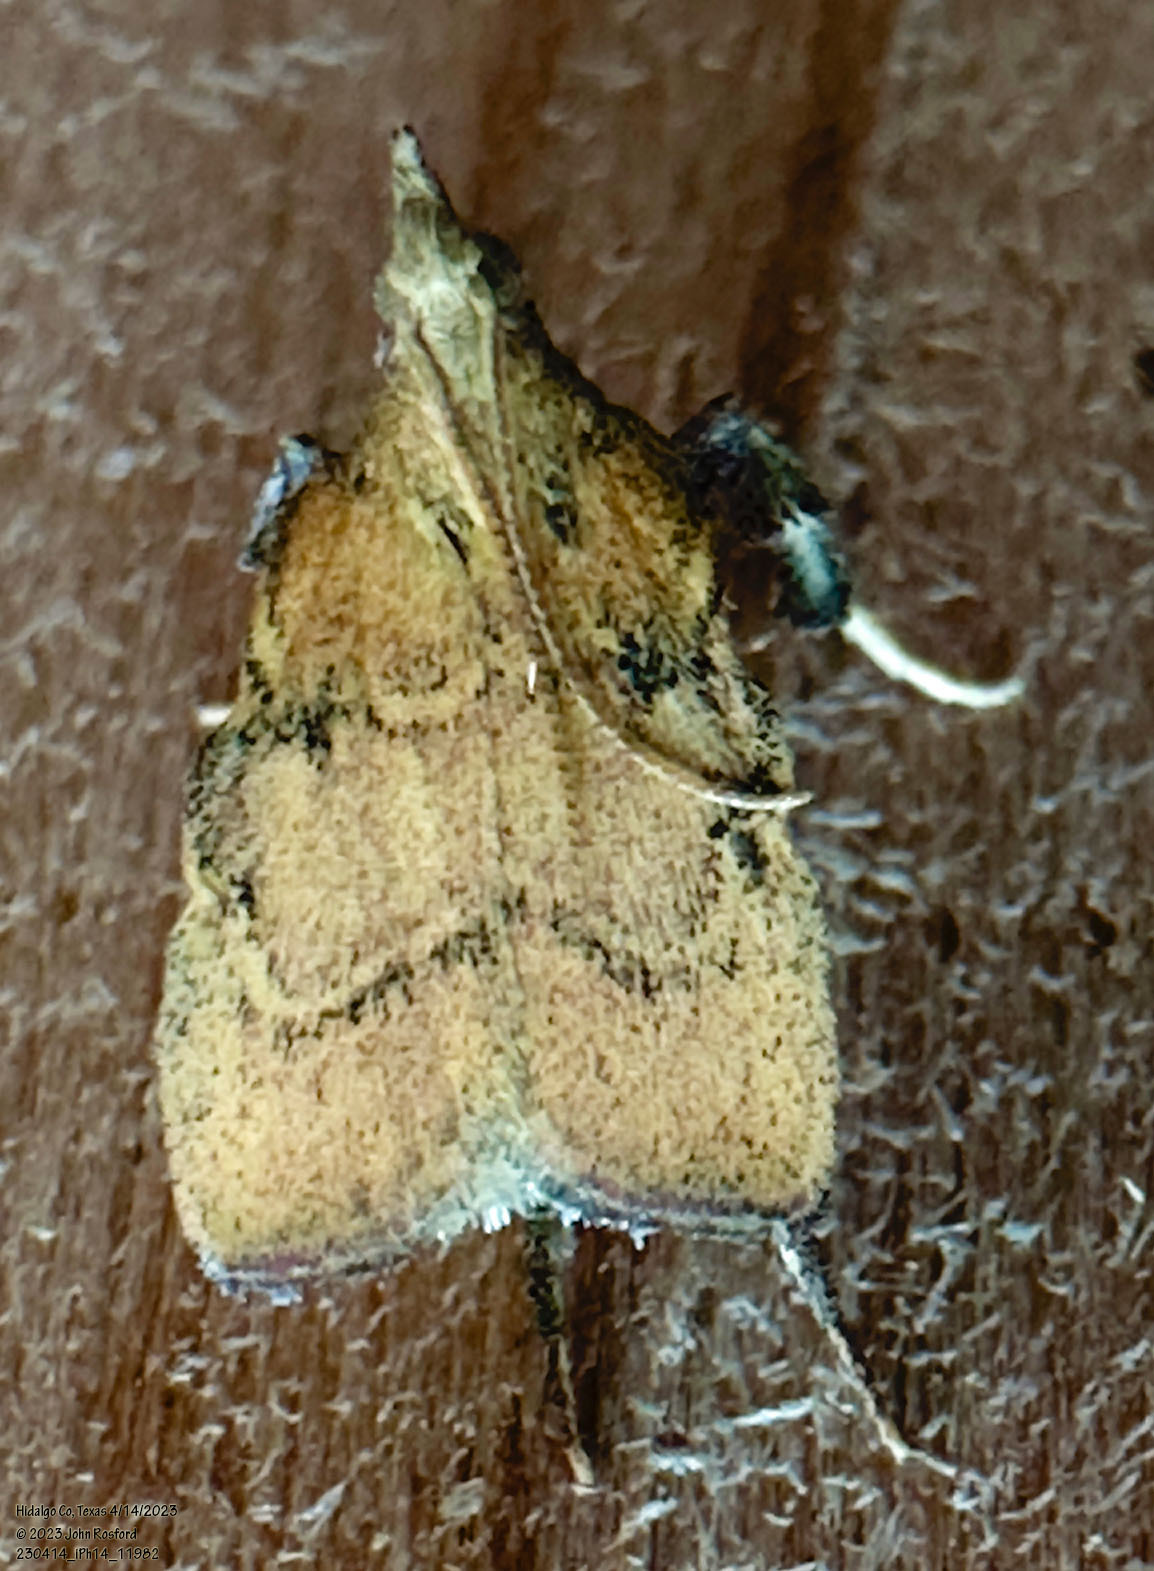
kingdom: Animalia
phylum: Arthropoda
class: Insecta
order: Lepidoptera
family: Pyralidae
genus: Negalasa
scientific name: Negalasa fumalis
